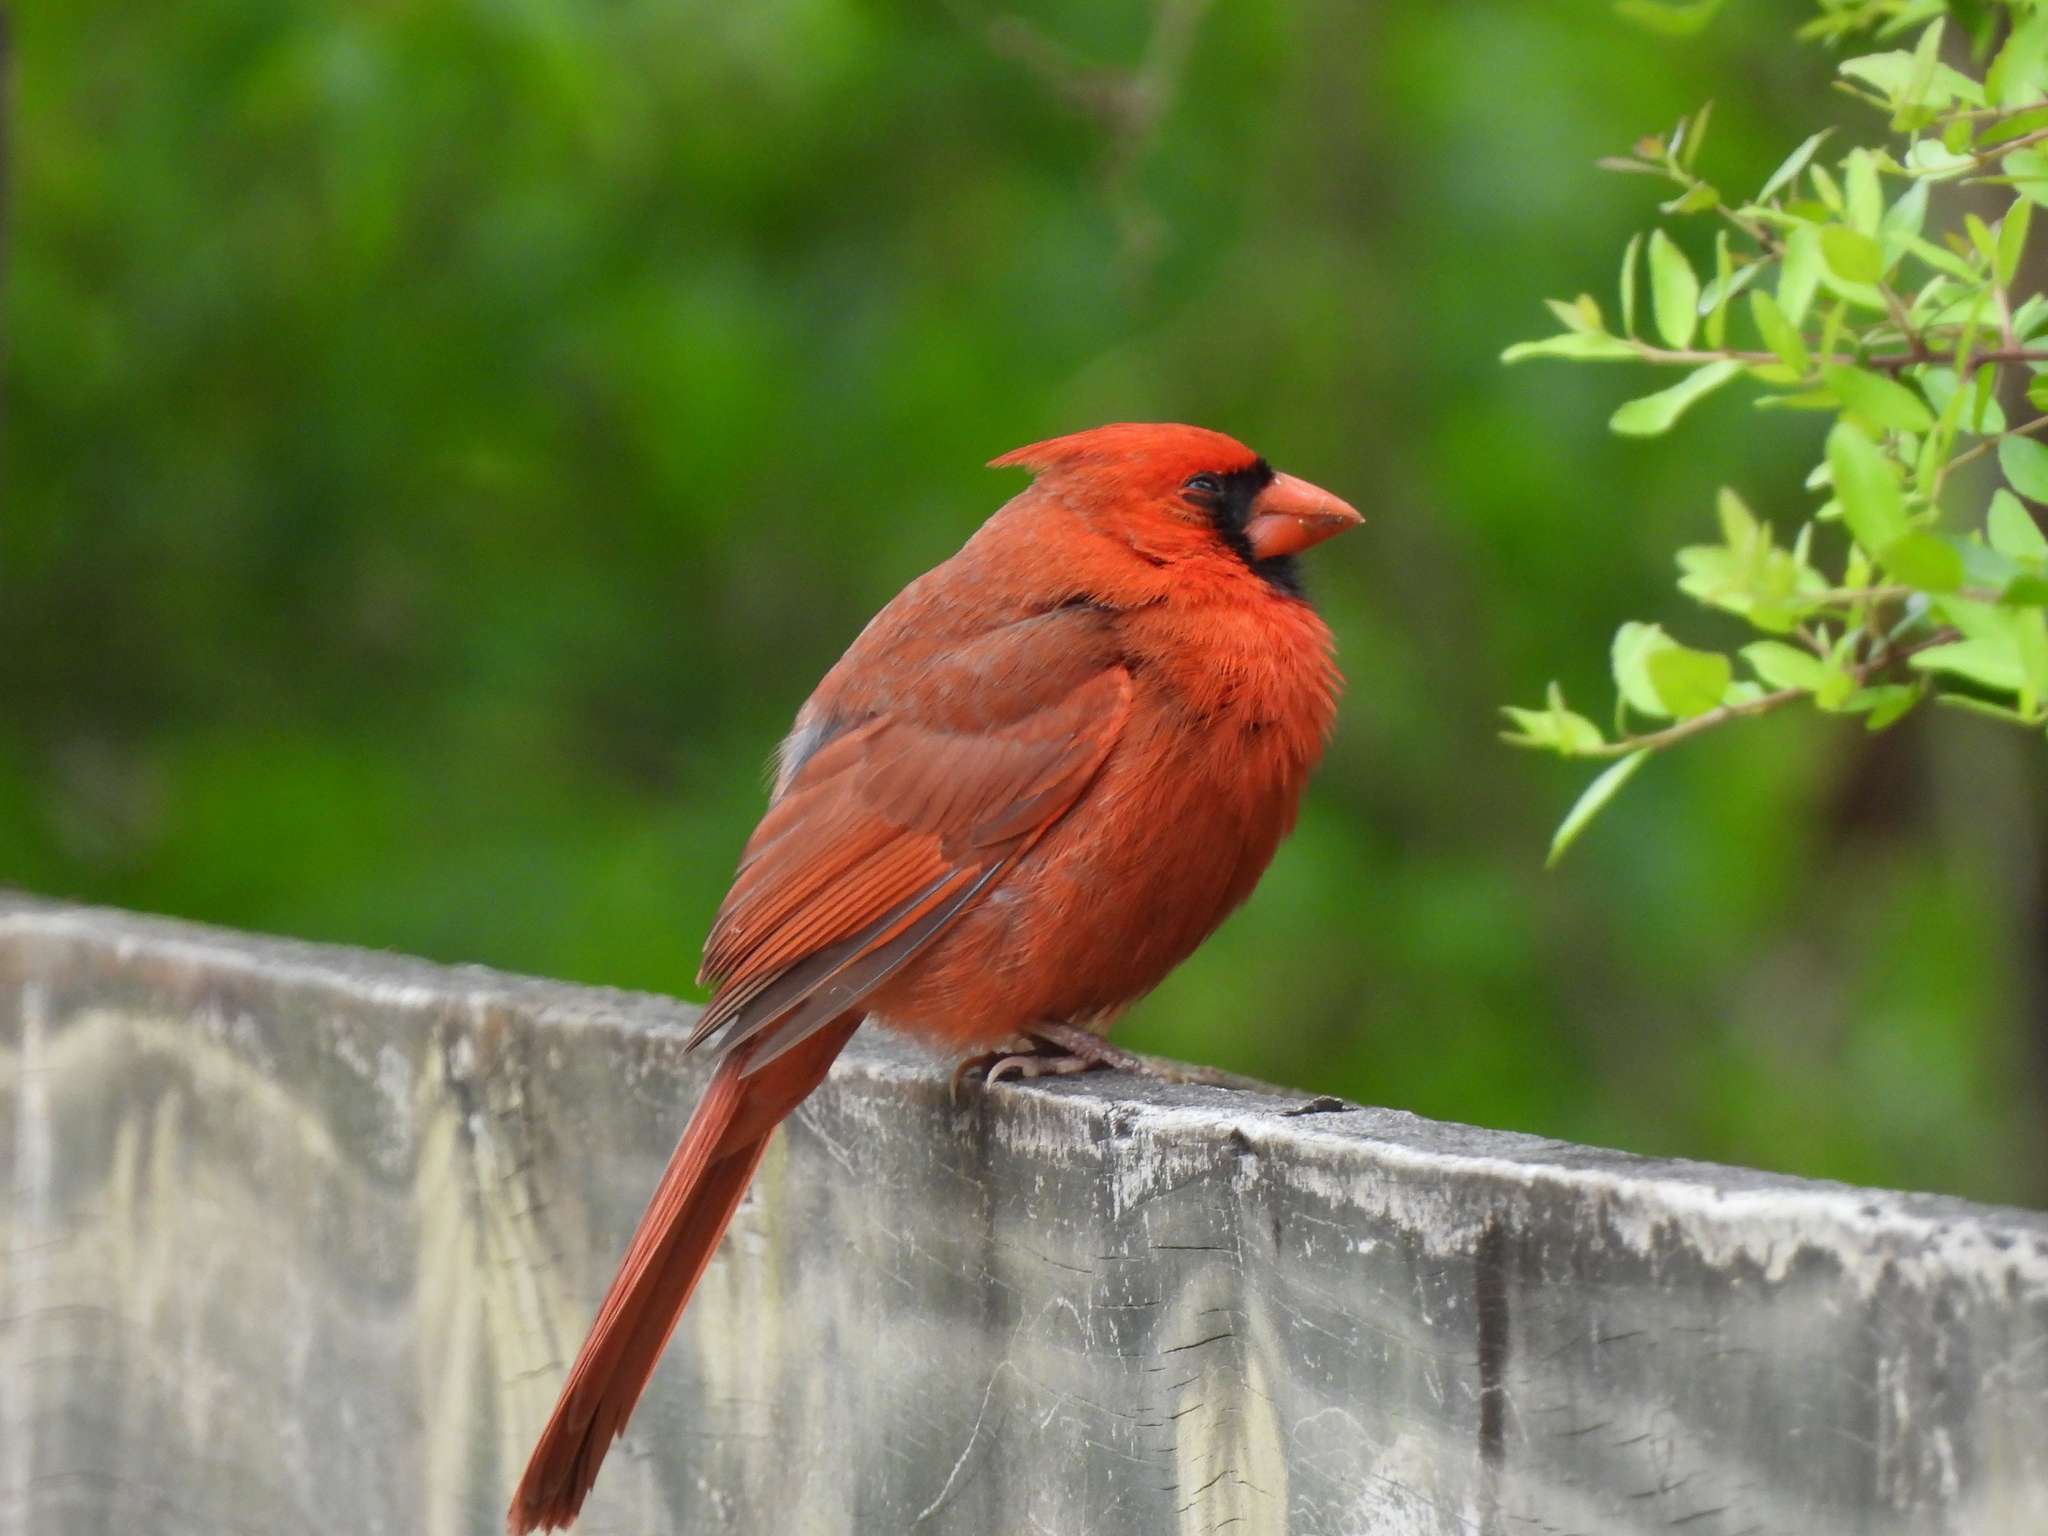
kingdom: Animalia
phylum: Chordata
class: Aves
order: Passeriformes
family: Cardinalidae
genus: Cardinalis
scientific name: Cardinalis cardinalis
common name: Northern cardinal
